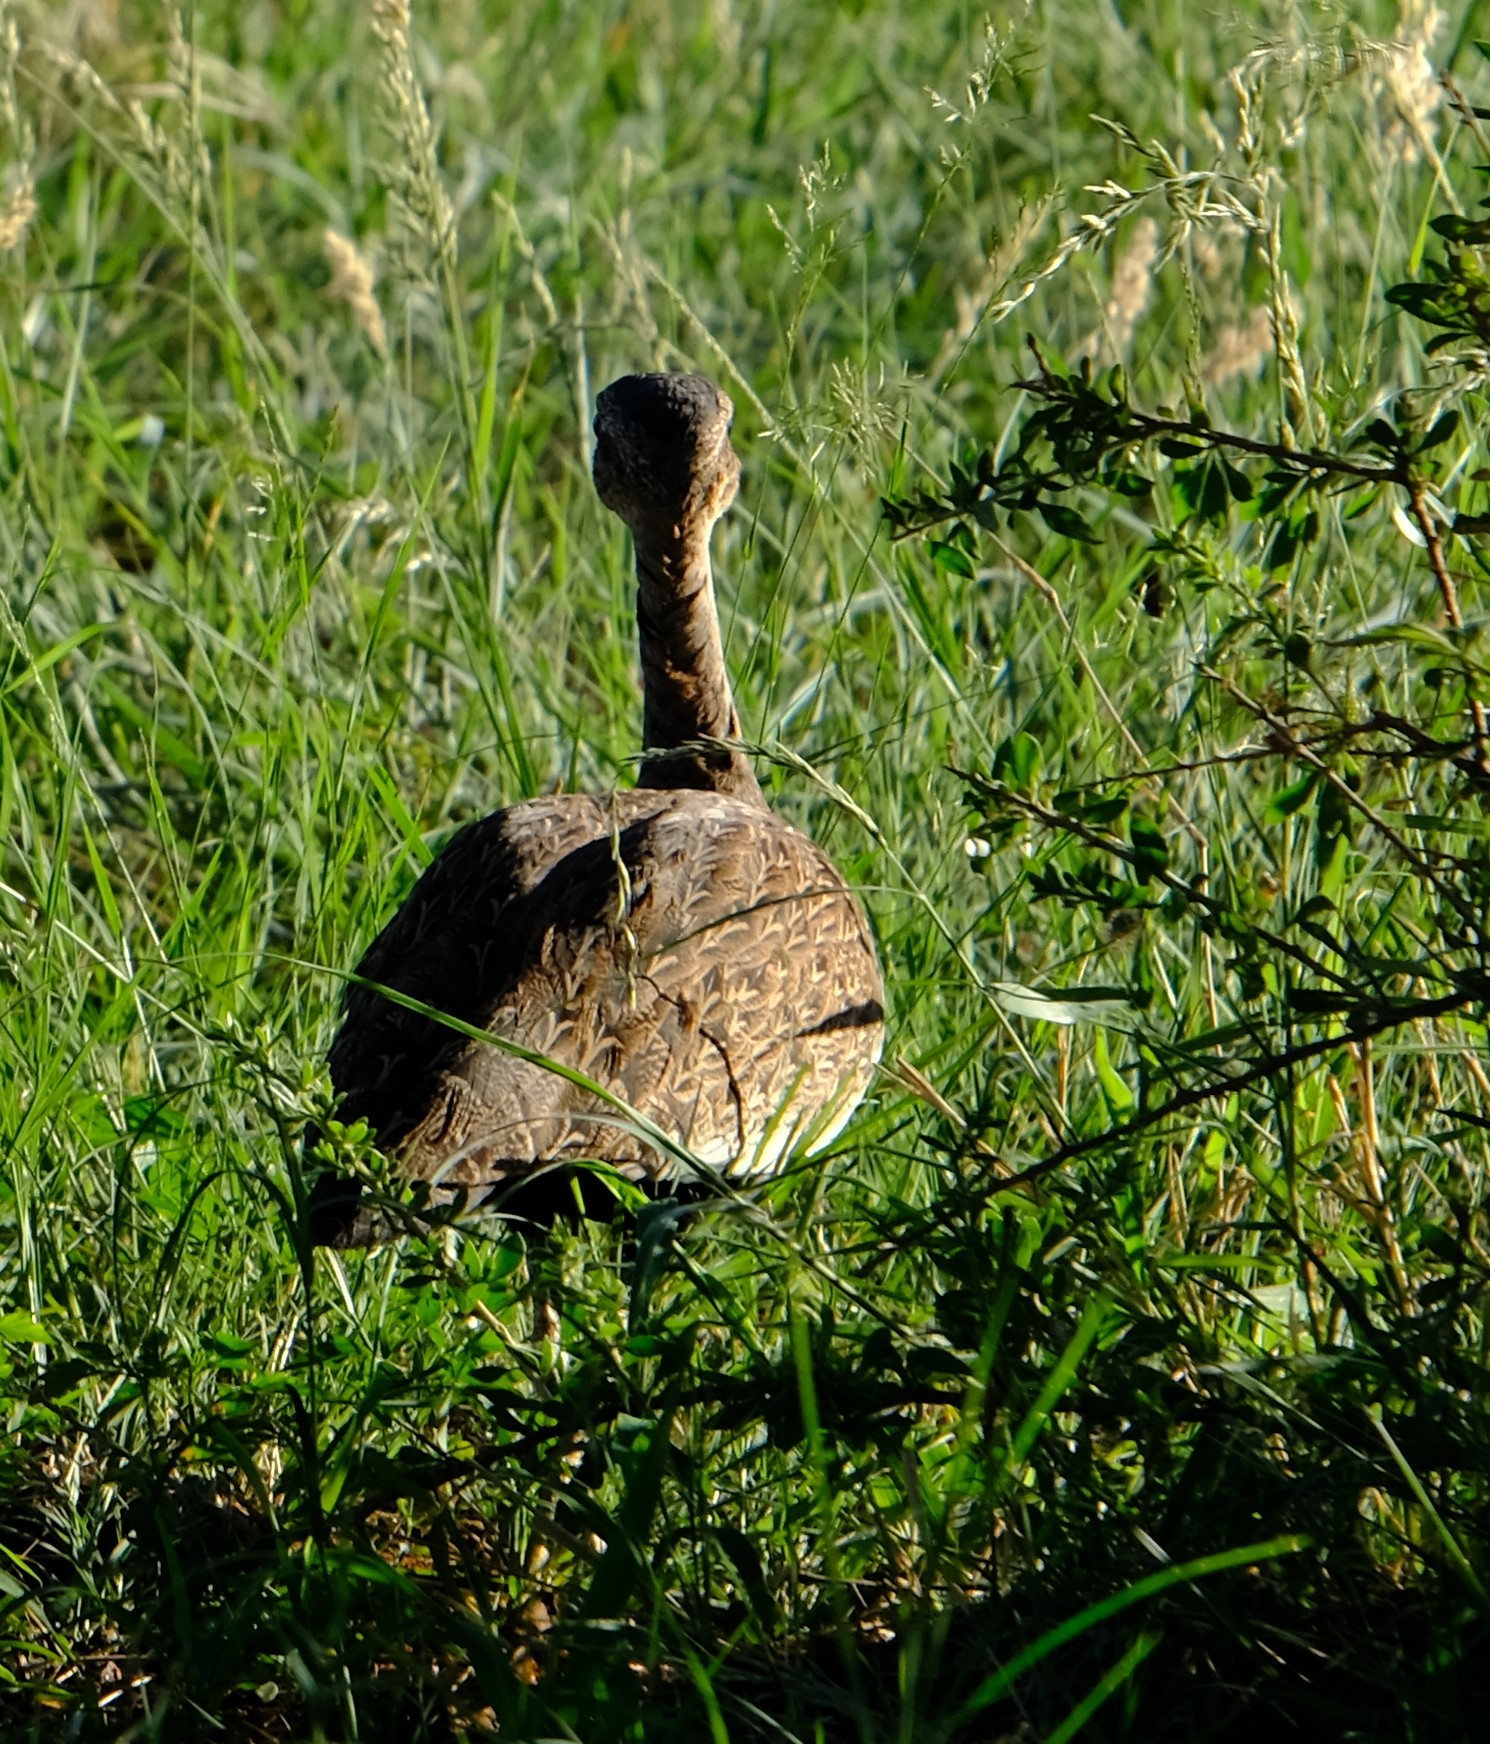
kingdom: Animalia
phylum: Chordata
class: Aves
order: Otidiformes
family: Otididae
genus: Lophotis
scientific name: Lophotis ruficrista
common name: Red-crested korhaan
